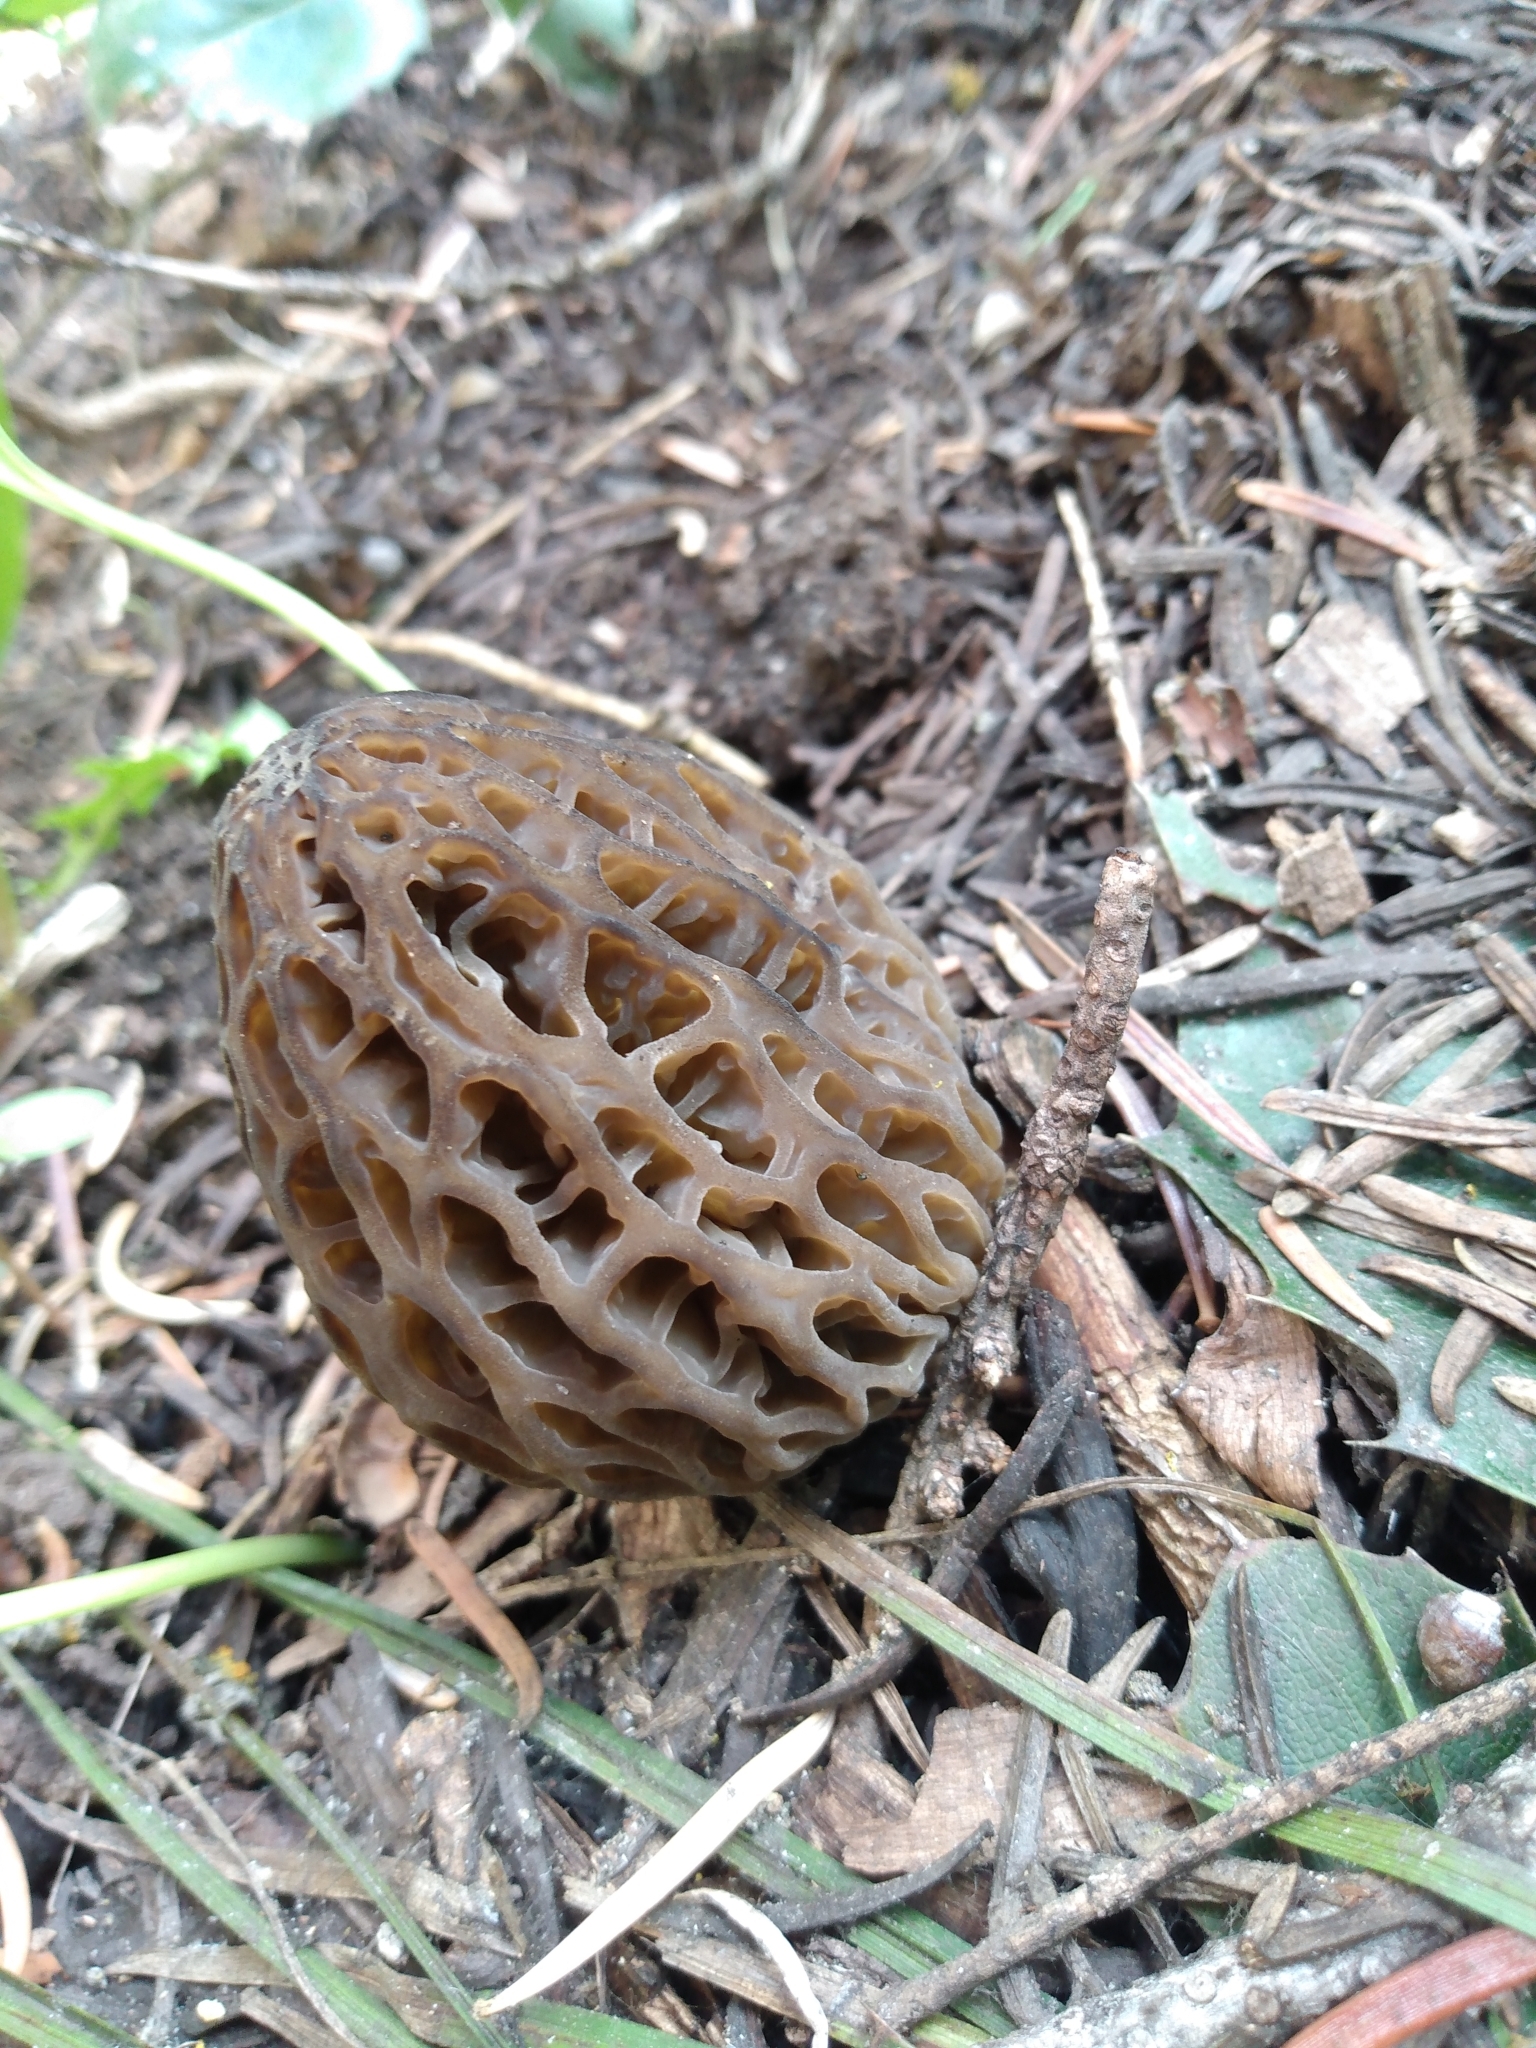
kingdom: Fungi
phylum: Ascomycota
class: Pezizomycetes
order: Pezizales
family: Morchellaceae
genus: Morchella
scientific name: Morchella snyderi
